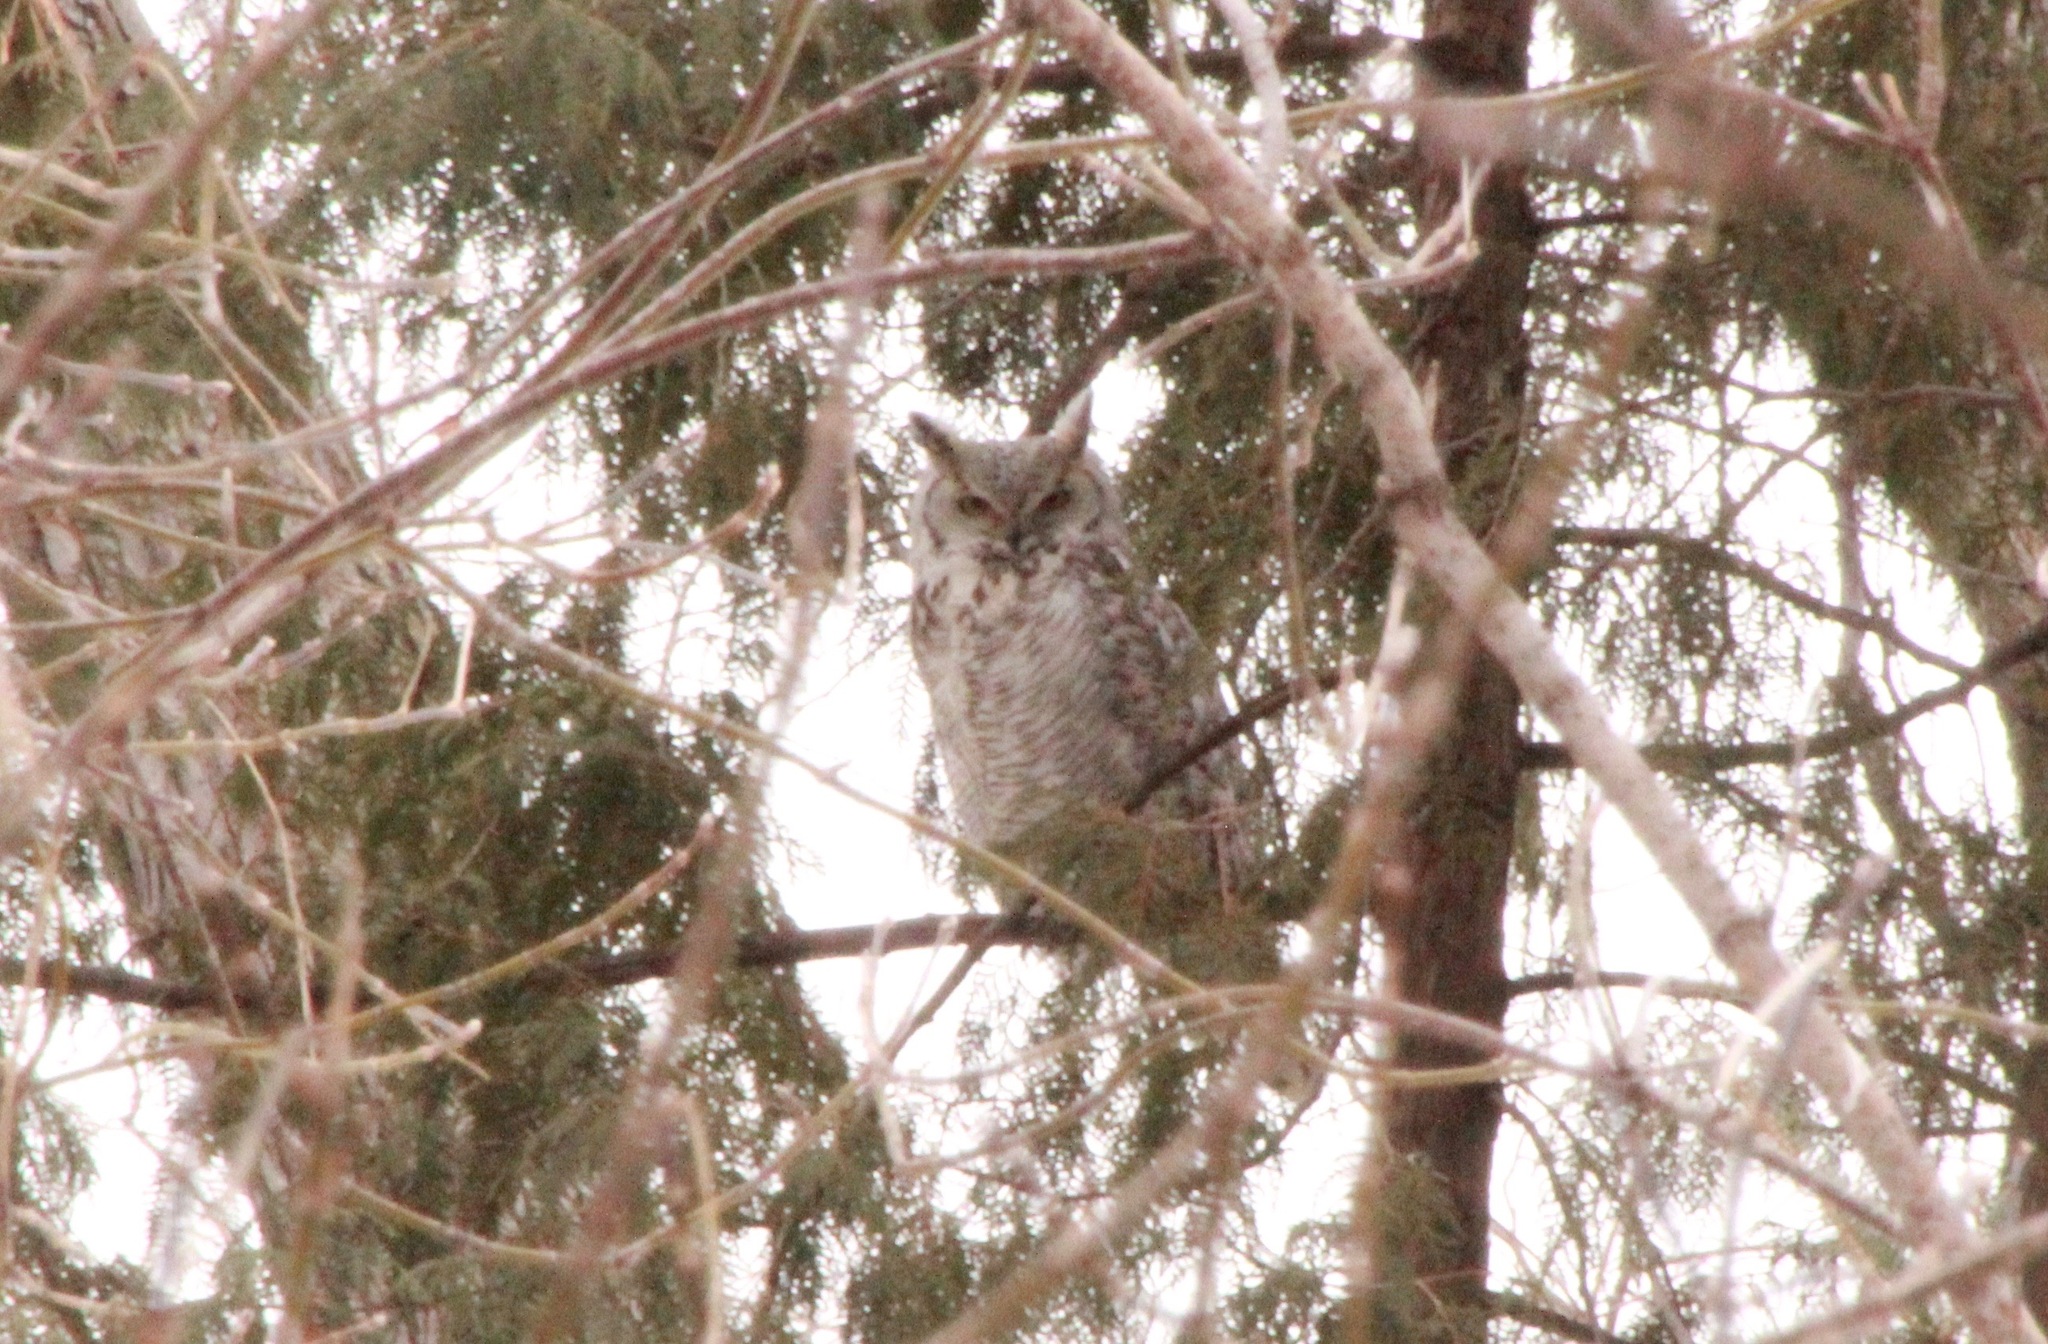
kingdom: Animalia
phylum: Chordata
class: Aves
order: Strigiformes
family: Strigidae
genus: Bubo
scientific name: Bubo virginianus
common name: Great horned owl
